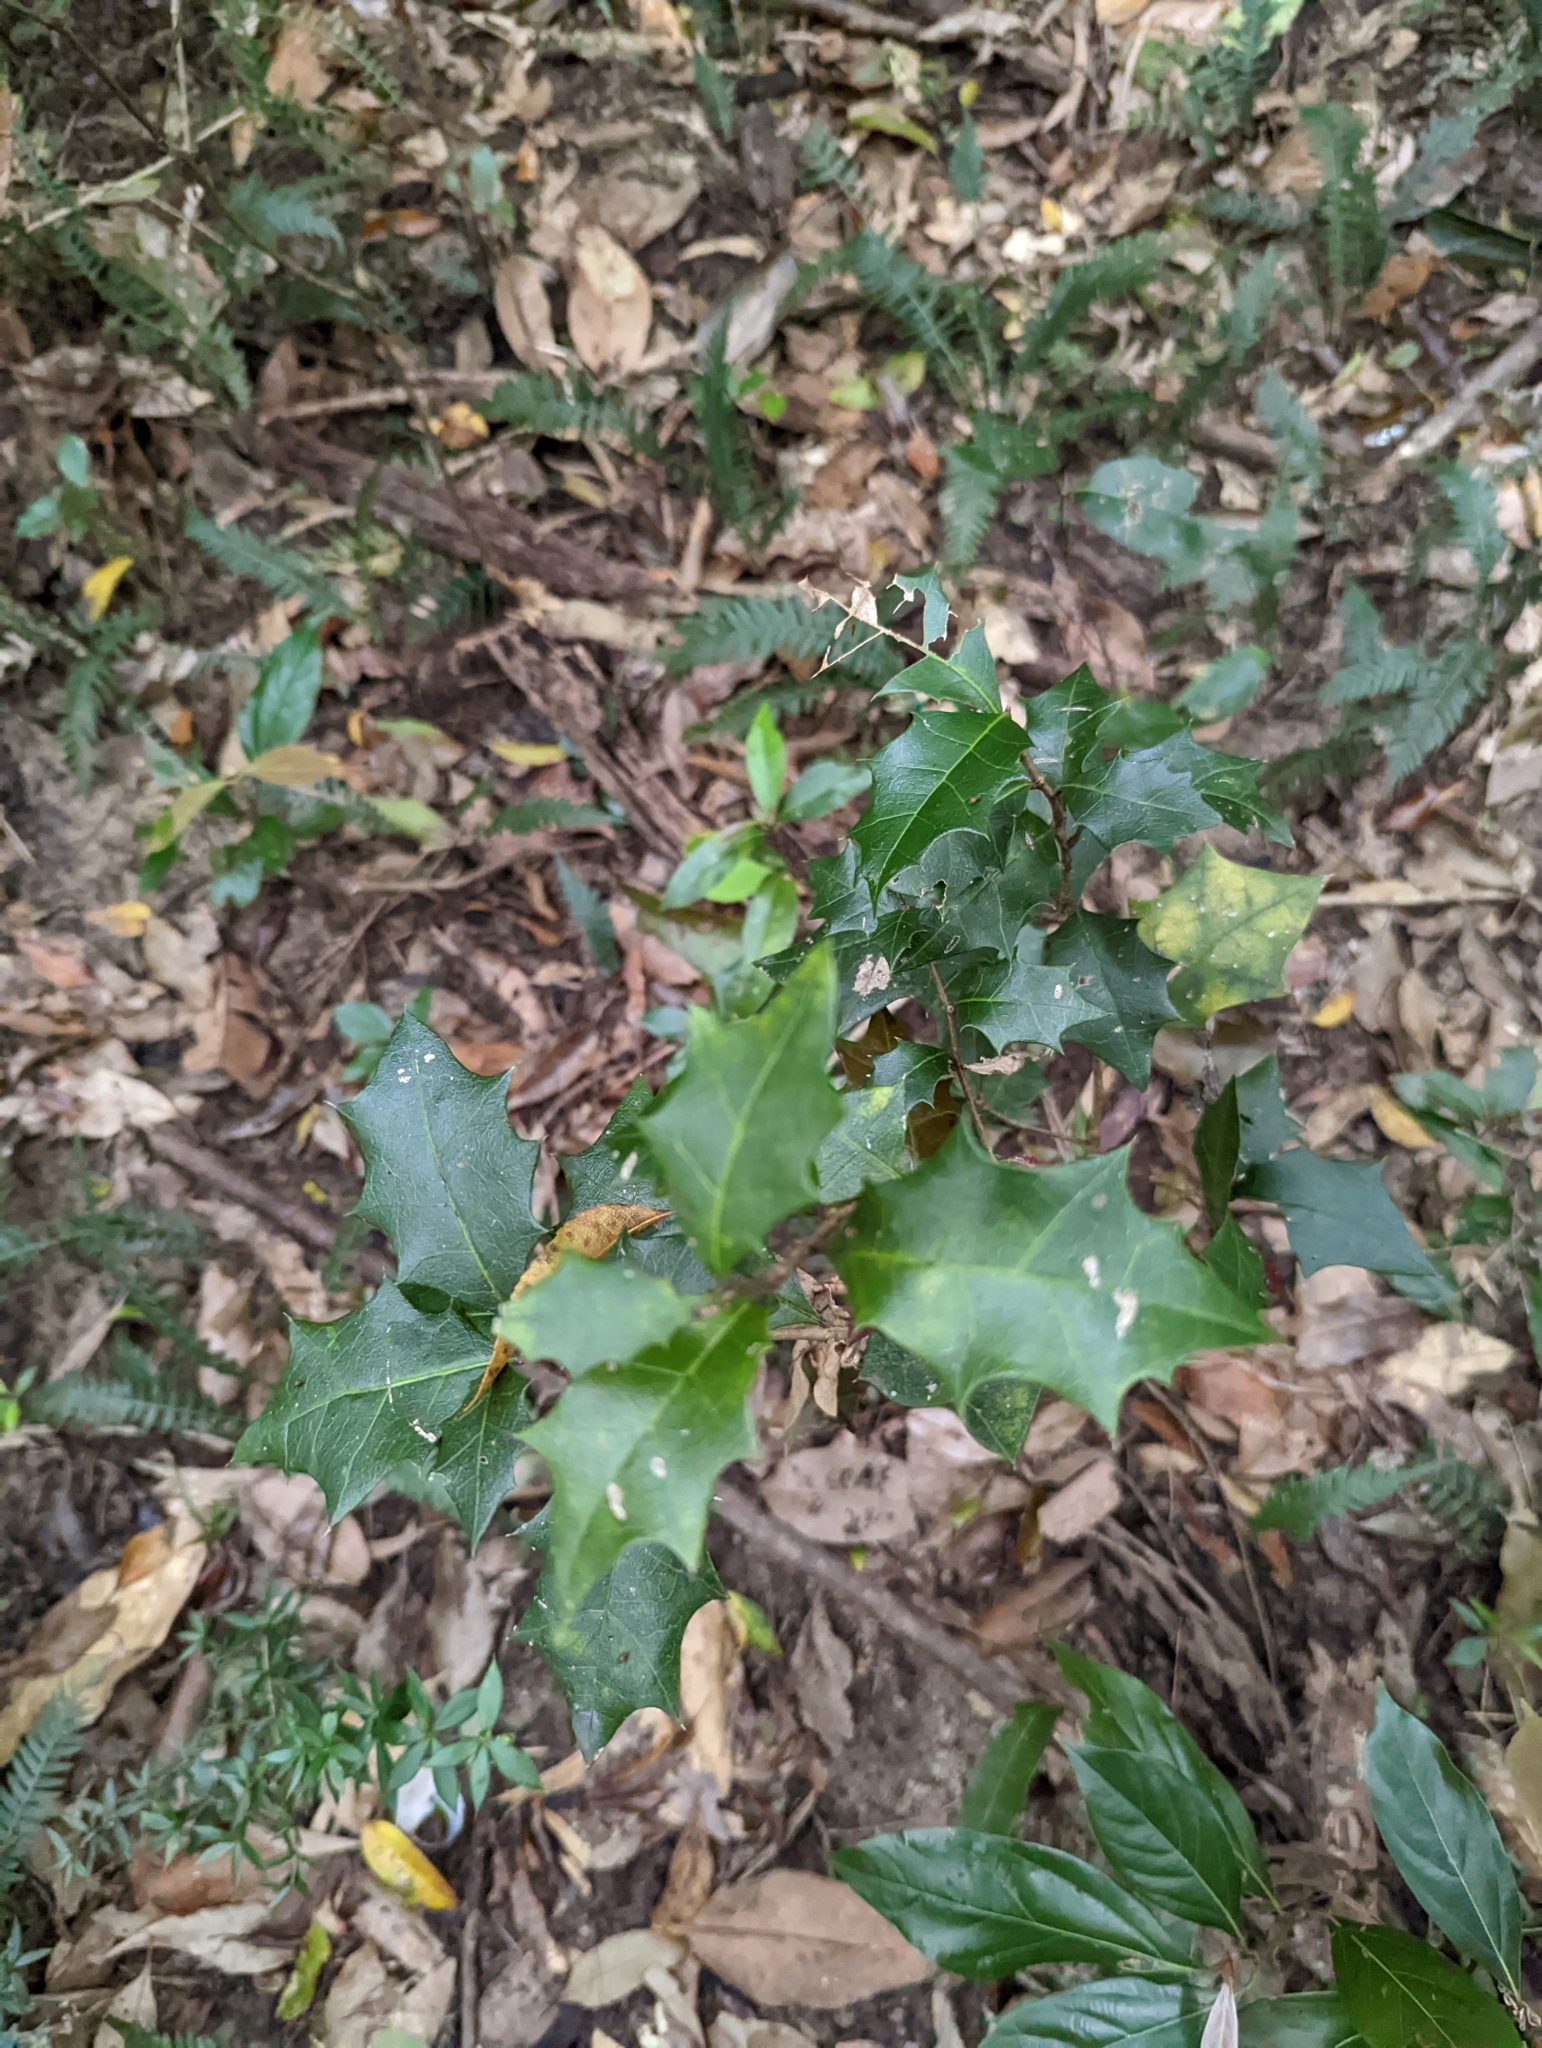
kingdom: Plantae
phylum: Tracheophyta
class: Magnoliopsida
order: Malpighiales
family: Euphorbiaceae
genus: Alchornea
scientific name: Alchornea ilicifolia
